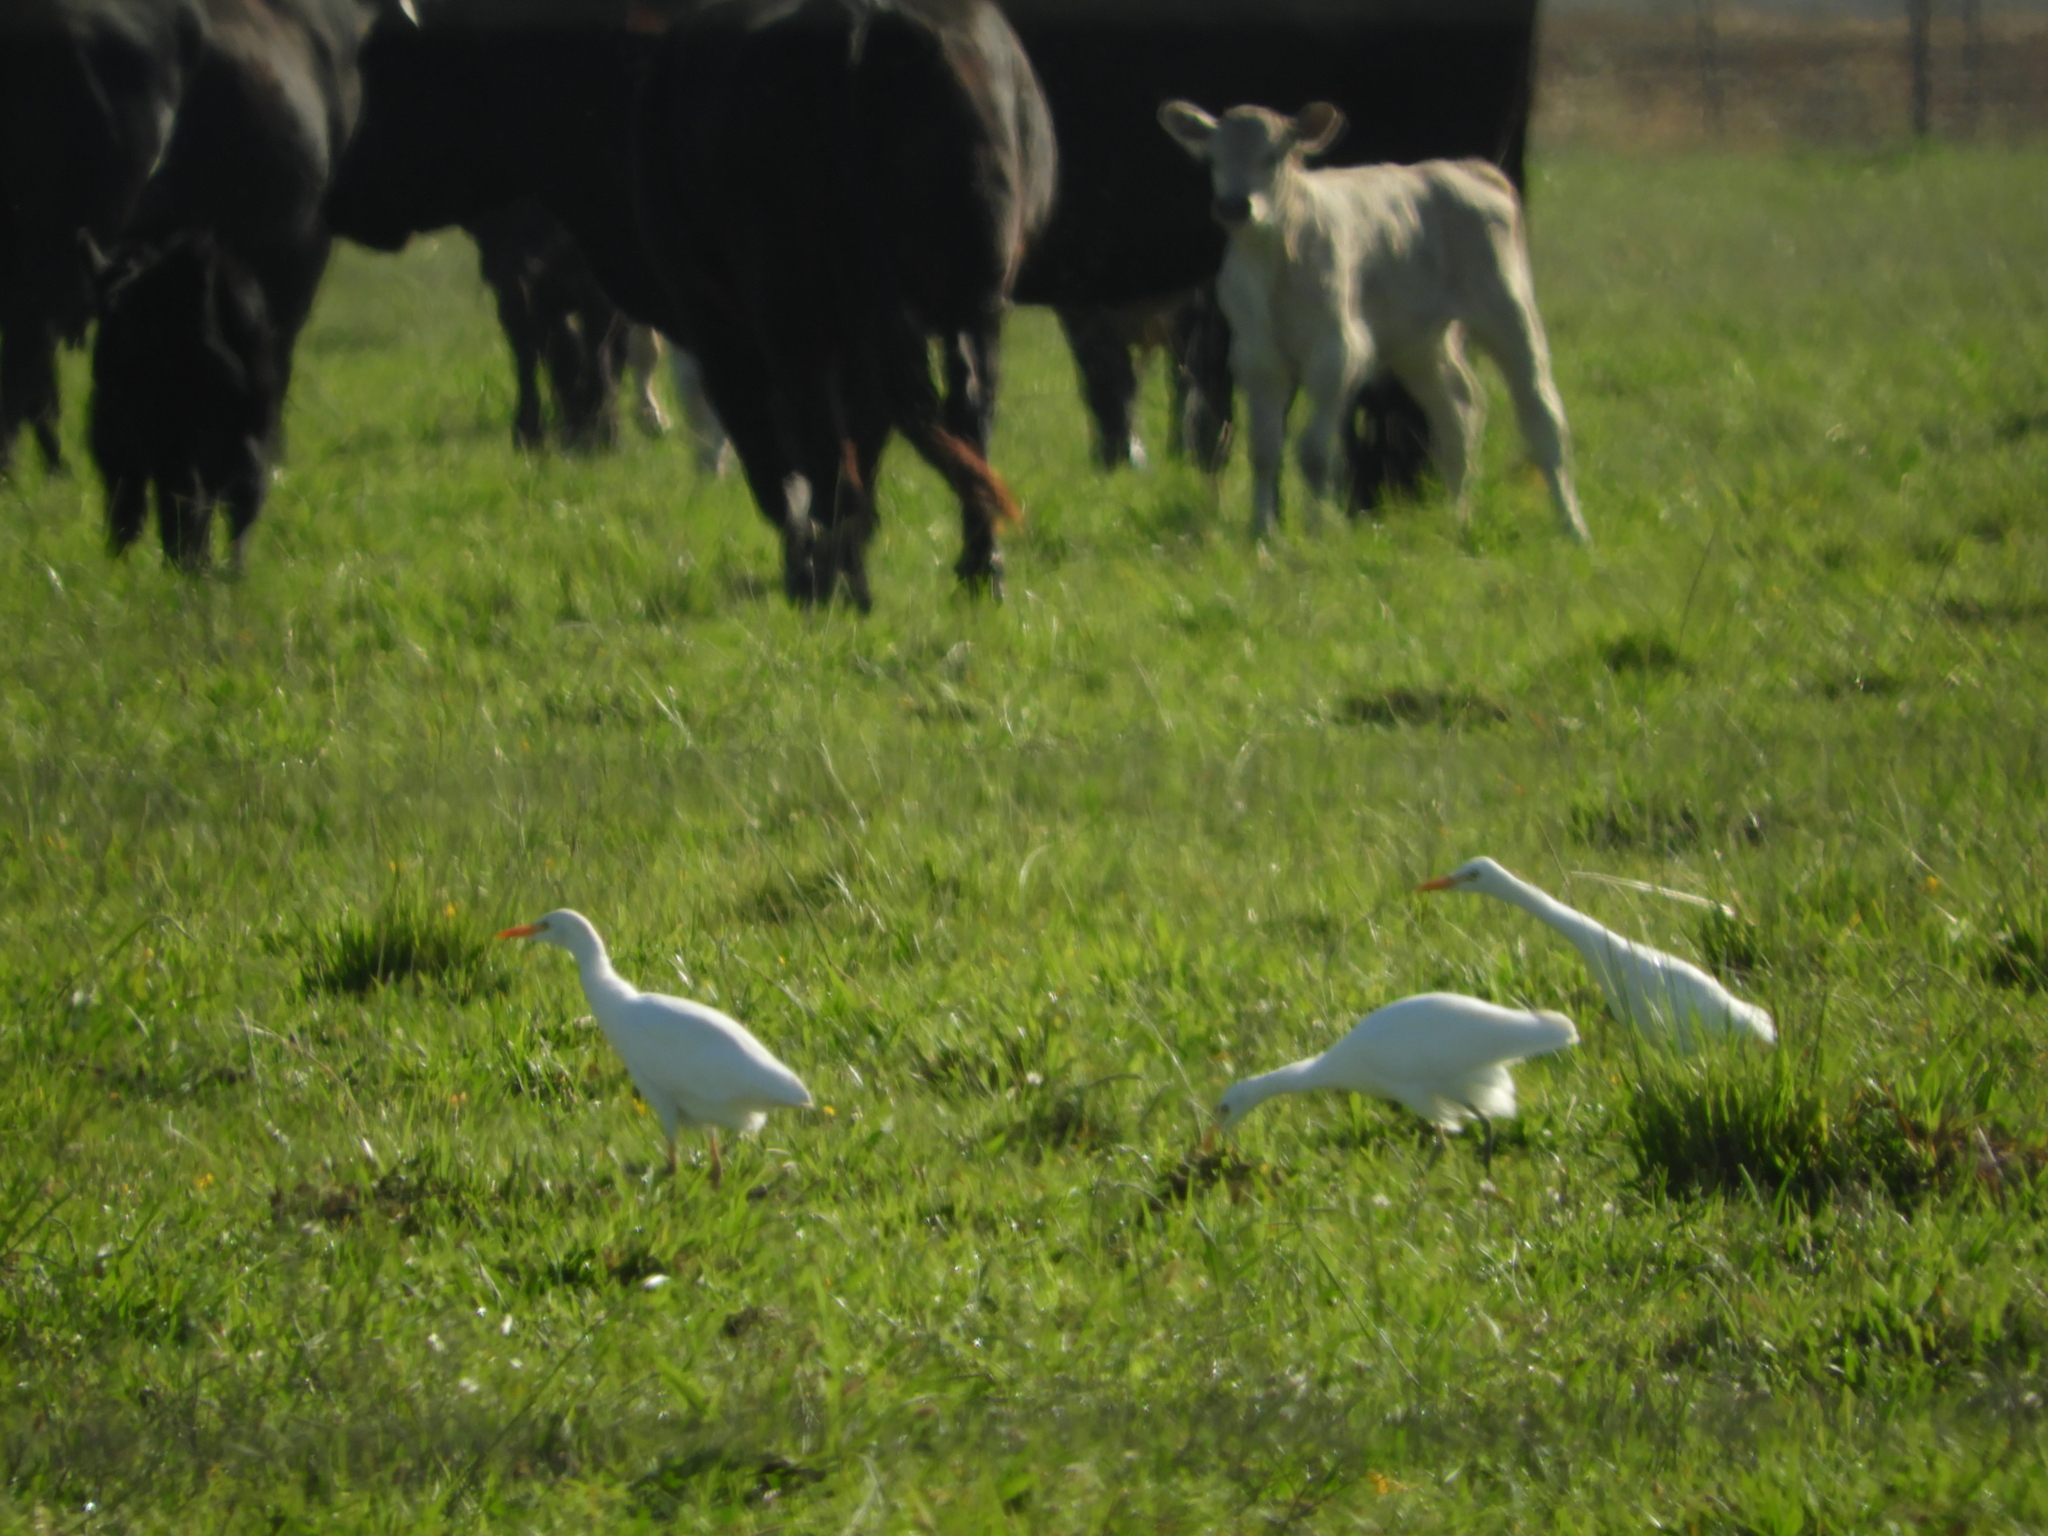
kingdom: Animalia
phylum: Chordata
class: Aves
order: Pelecaniformes
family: Ardeidae
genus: Bubulcus
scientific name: Bubulcus ibis
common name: Cattle egret
